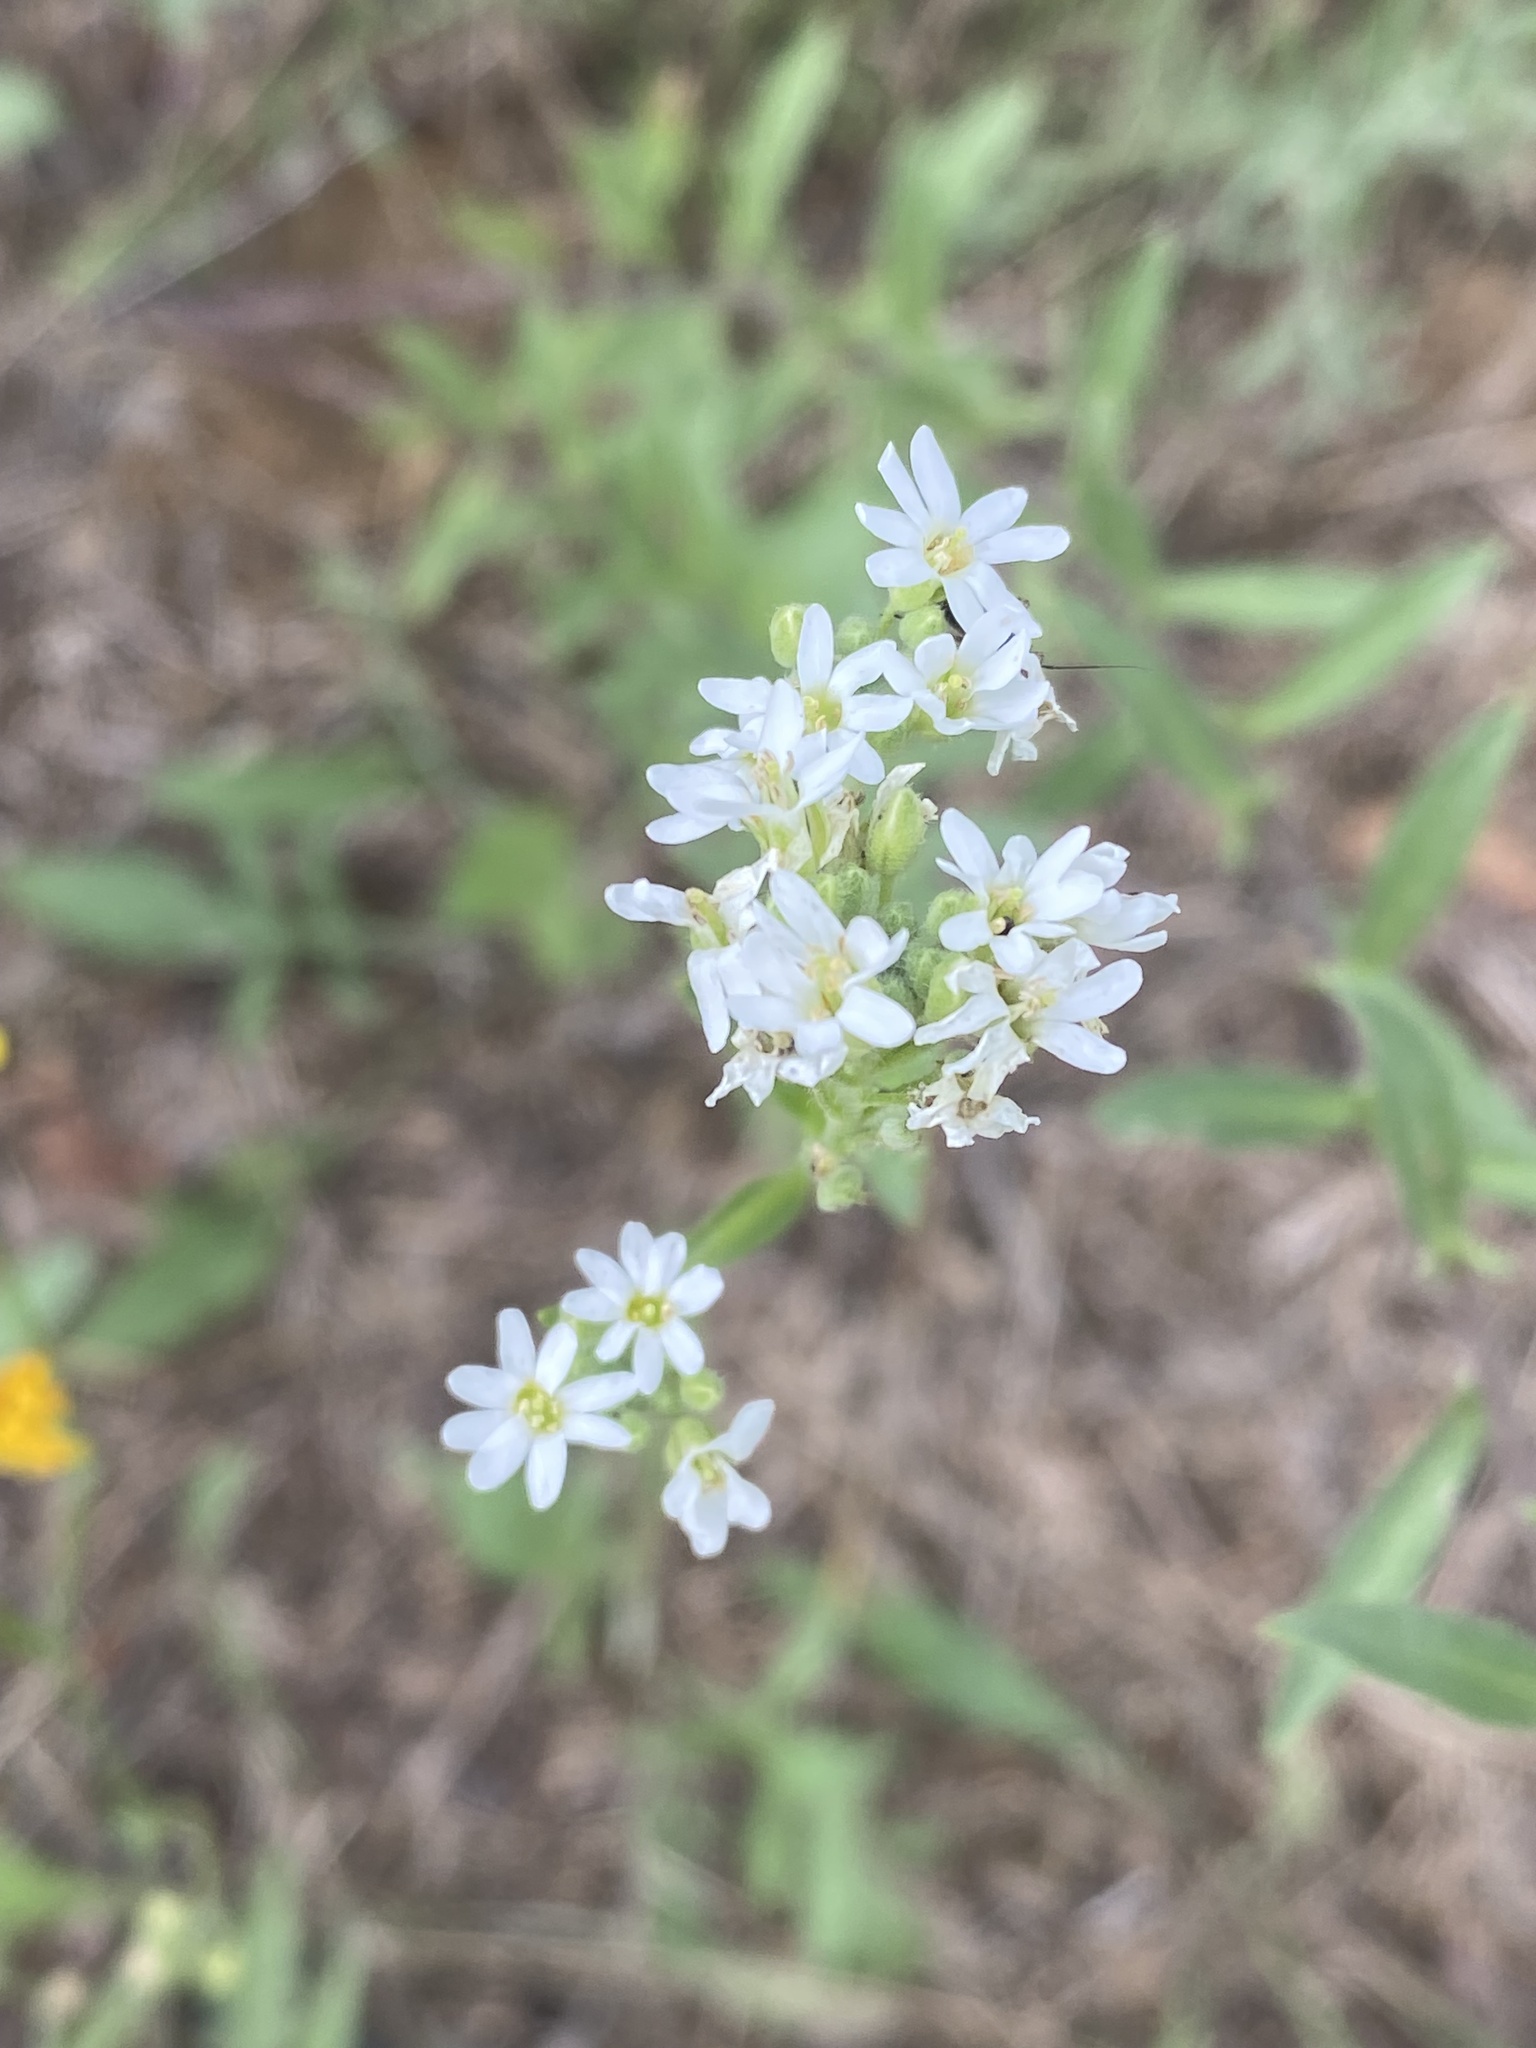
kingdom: Plantae
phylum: Tracheophyta
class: Magnoliopsida
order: Brassicales
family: Brassicaceae
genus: Berteroa
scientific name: Berteroa incana
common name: Hoary alison
